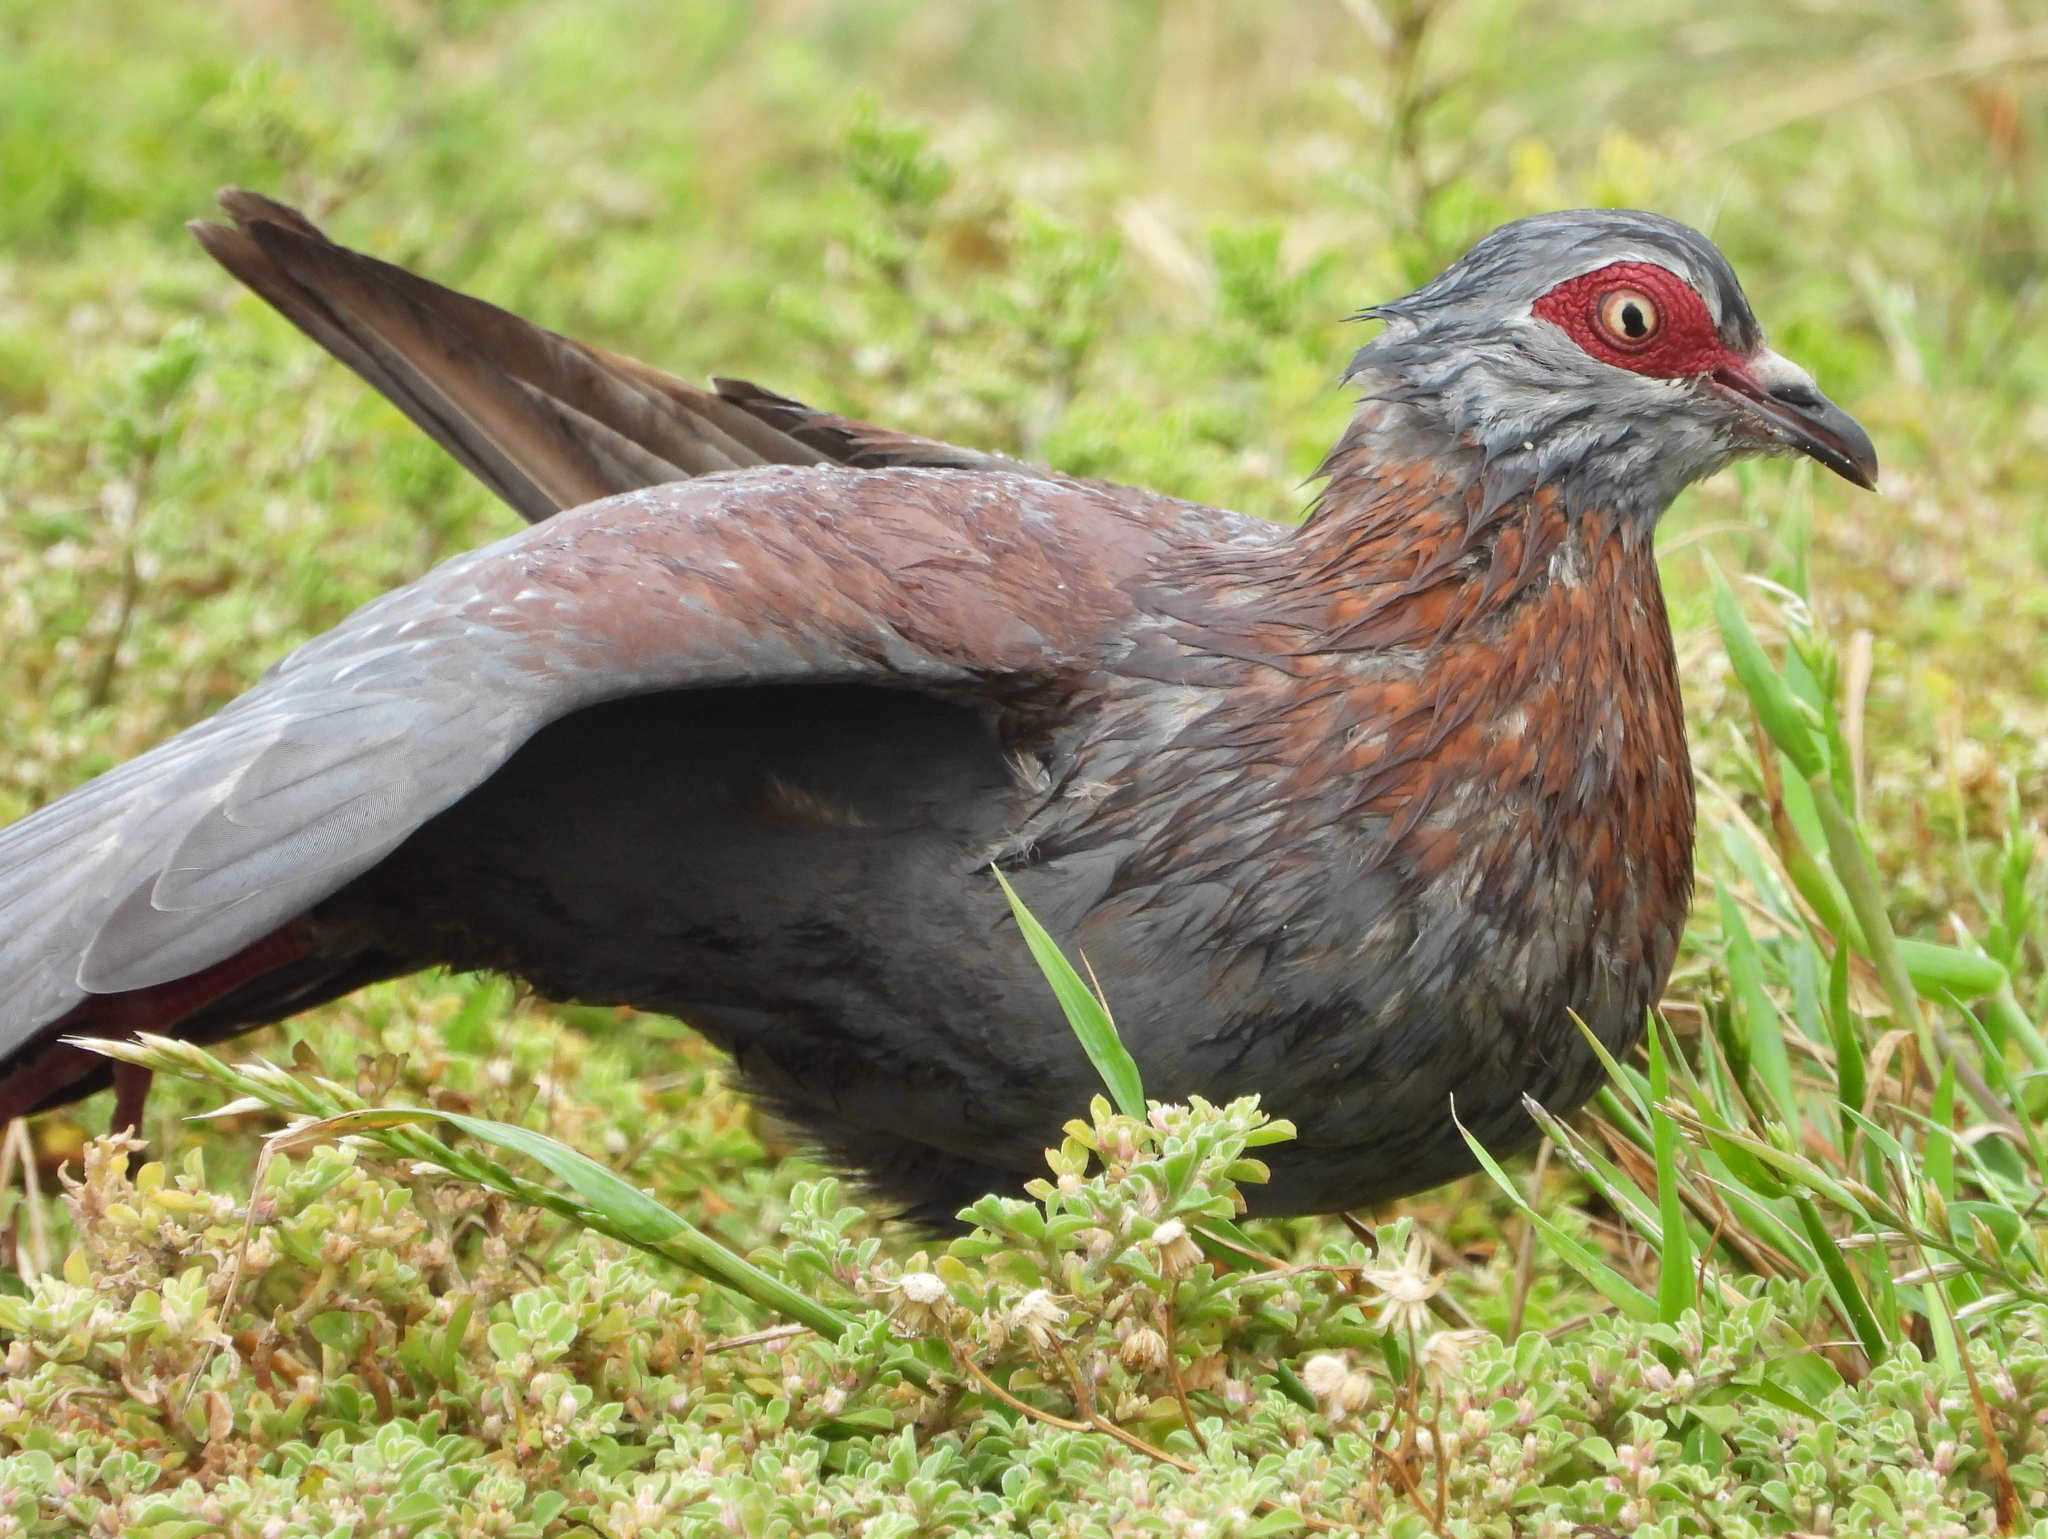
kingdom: Animalia
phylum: Chordata
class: Aves
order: Columbiformes
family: Columbidae
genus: Columba
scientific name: Columba guinea
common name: Speckled pigeon
